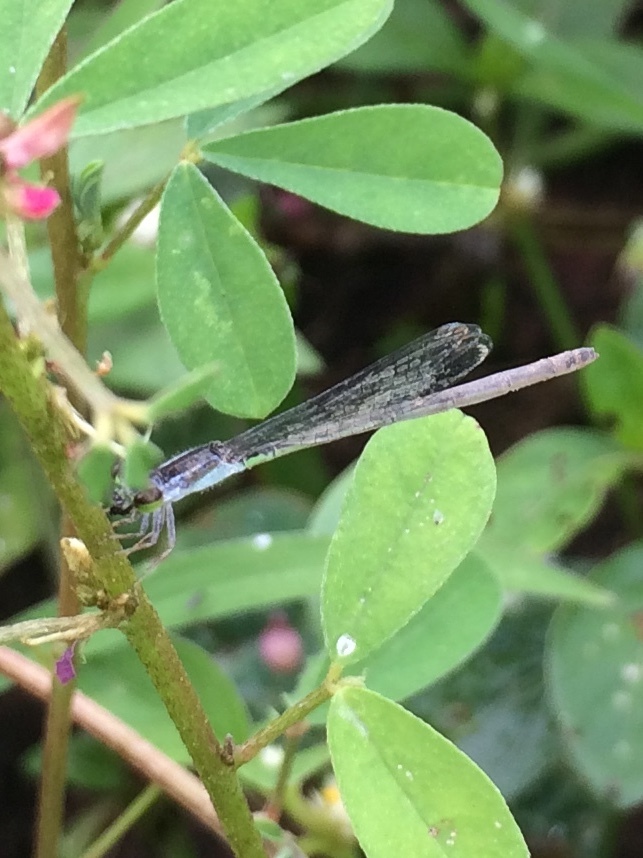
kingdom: Animalia
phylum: Arthropoda
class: Insecta
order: Odonata
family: Coenagrionidae
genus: Agriocnemis
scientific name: Agriocnemis pygmaea
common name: Pygmy wisp
